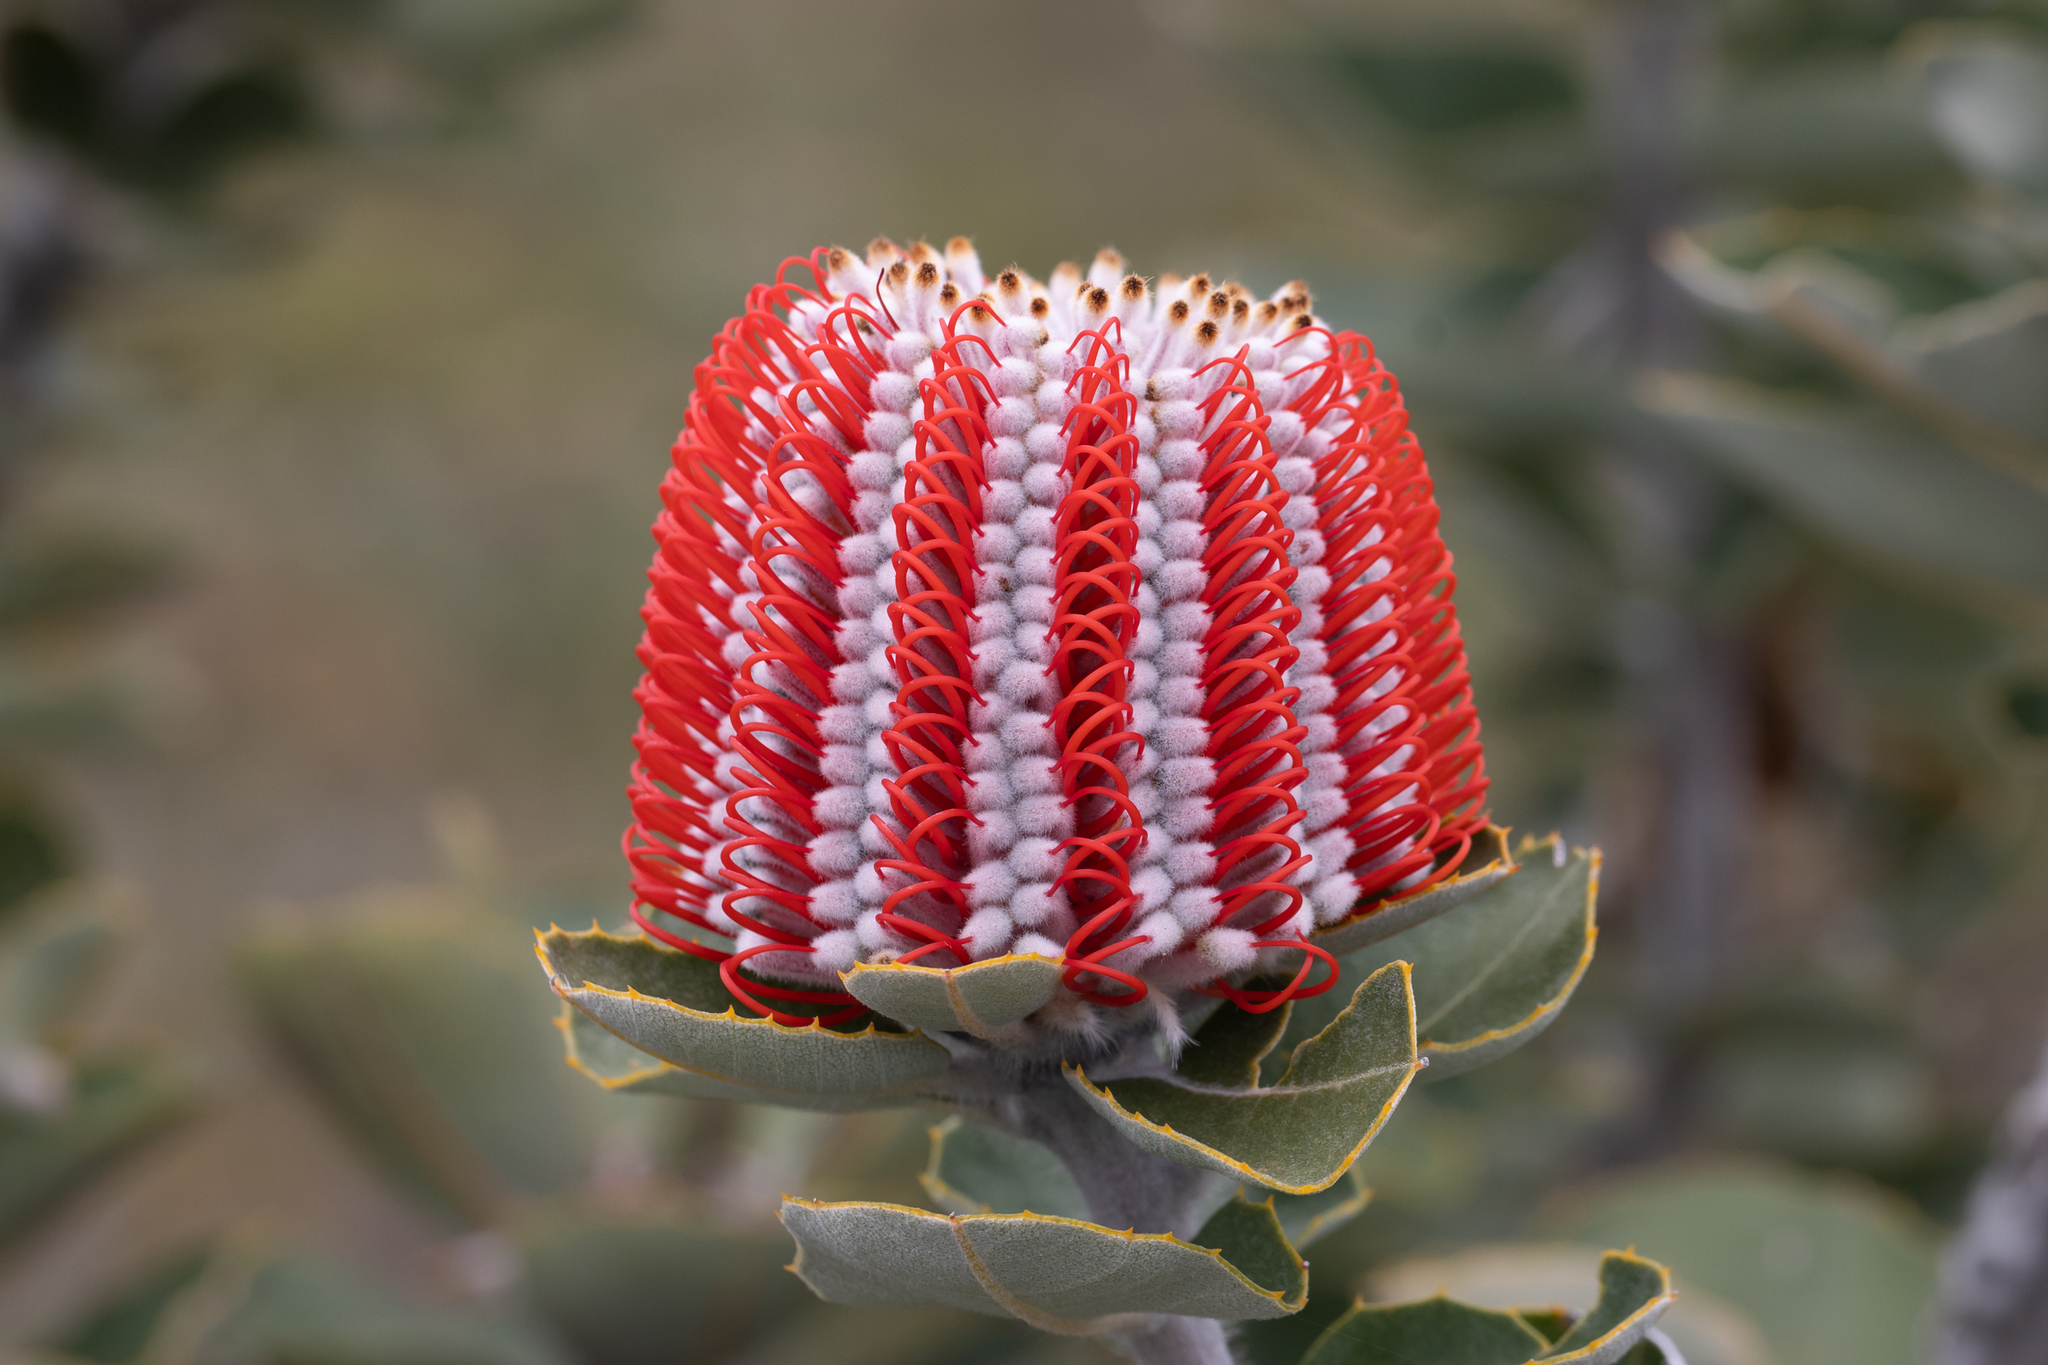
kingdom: Plantae
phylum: Tracheophyta
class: Magnoliopsida
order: Proteales
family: Proteaceae
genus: Banksia
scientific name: Banksia coccinea
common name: Scarlet banksia
